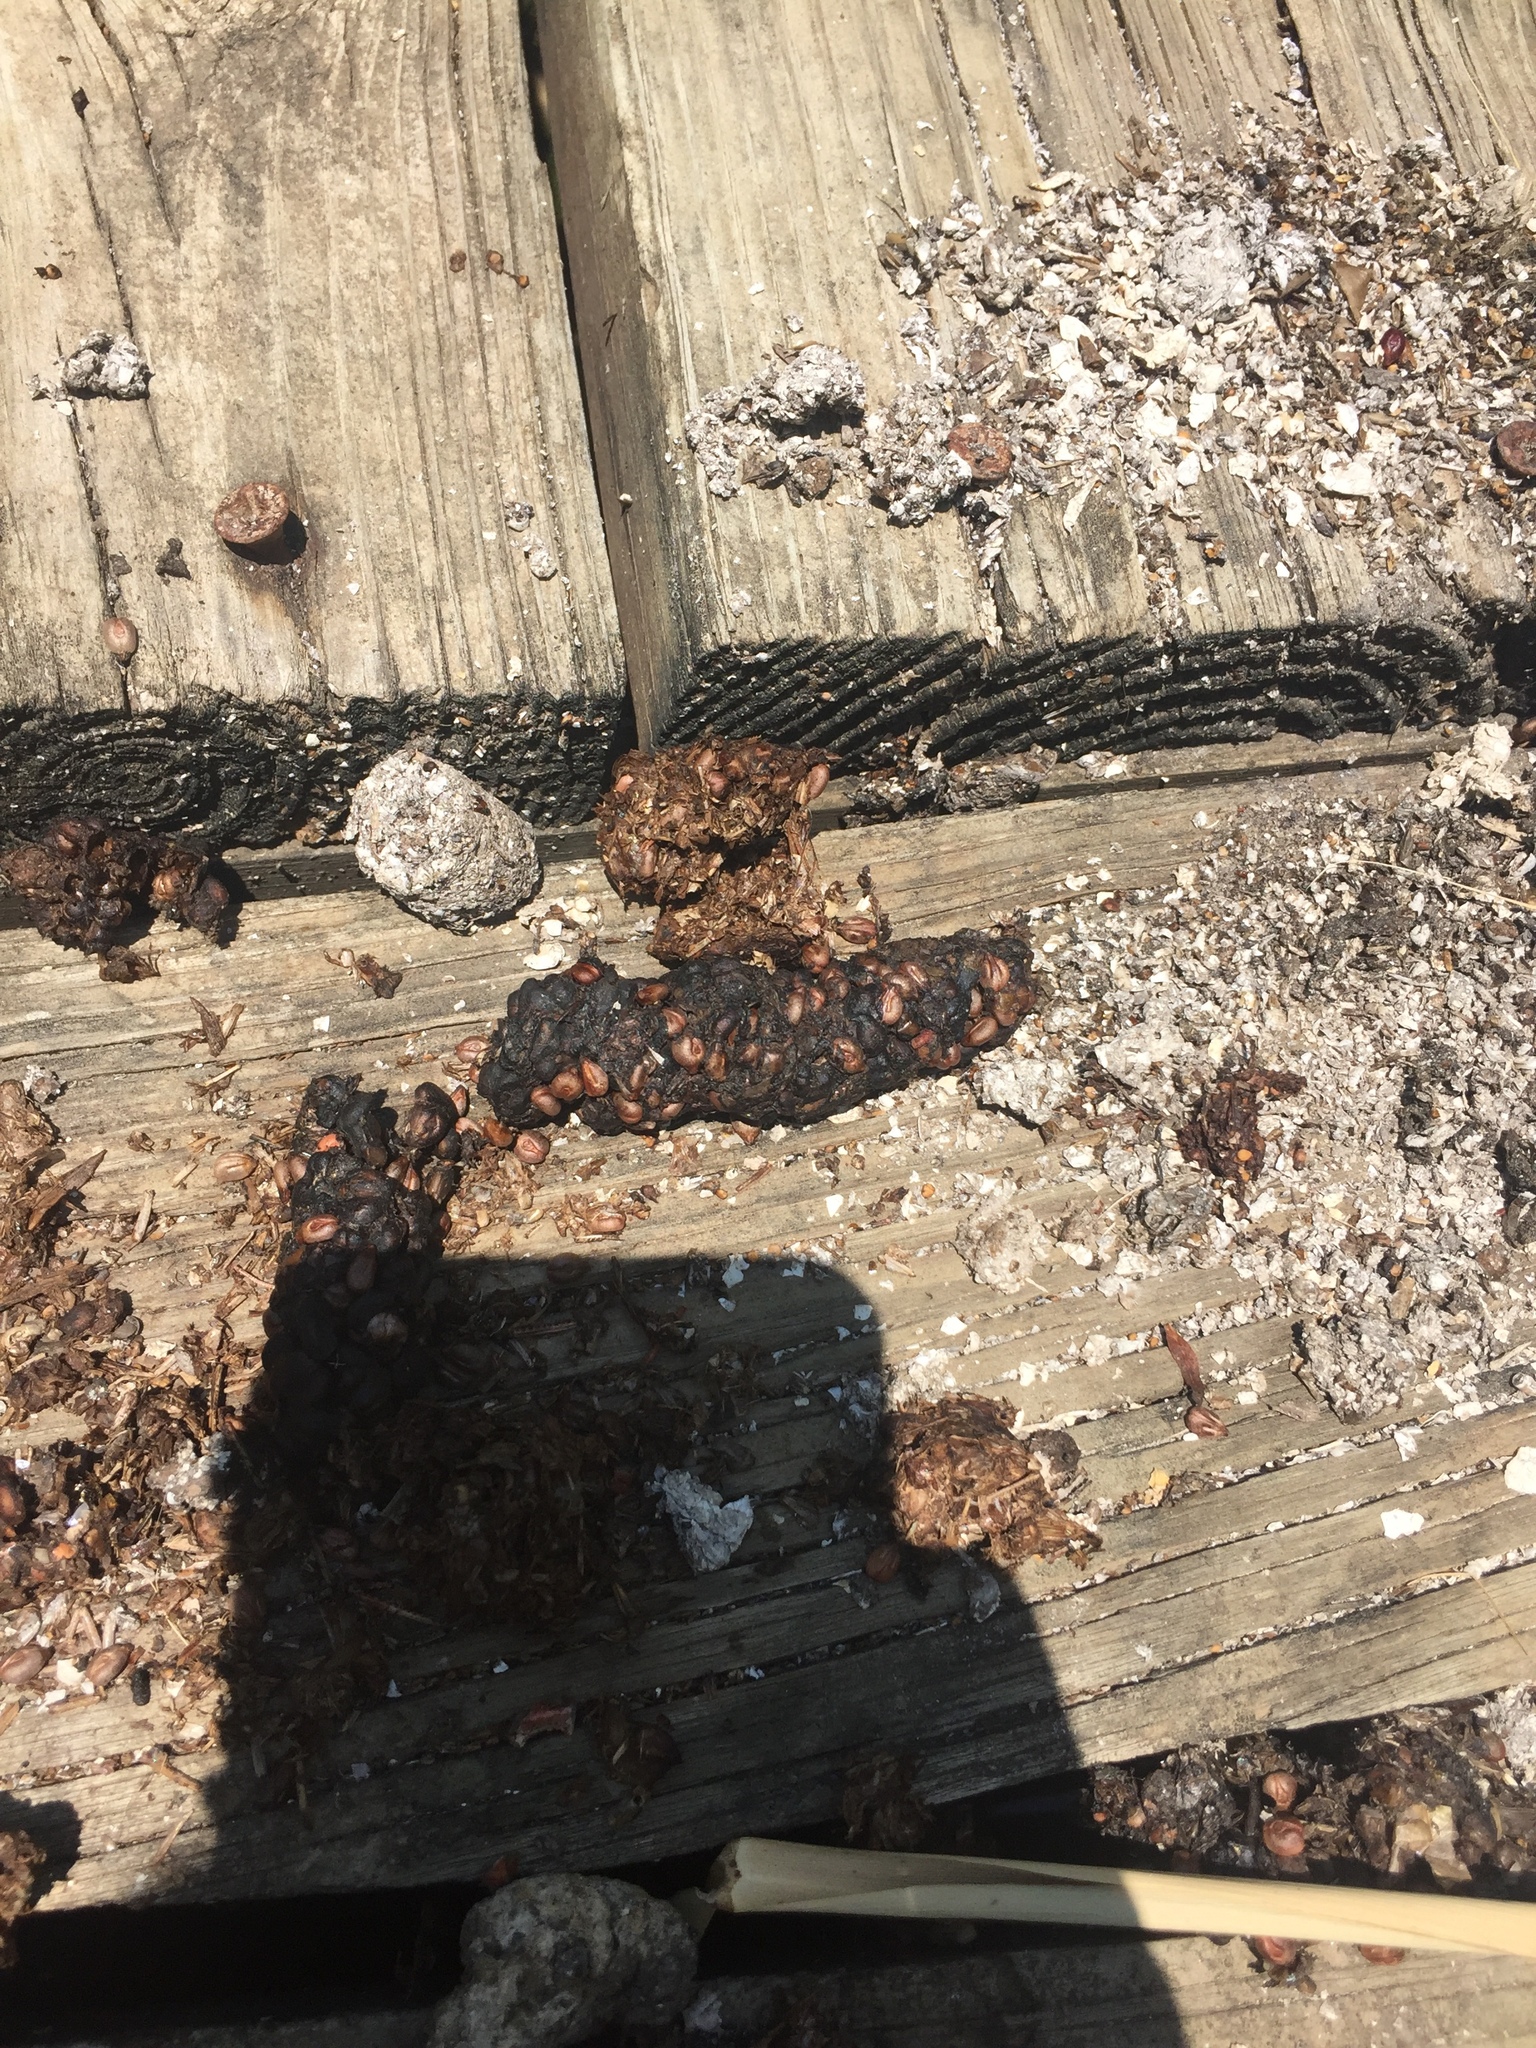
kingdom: Animalia
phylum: Chordata
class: Mammalia
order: Carnivora
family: Mustelidae
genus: Lontra
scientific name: Lontra canadensis
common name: North american river otter
